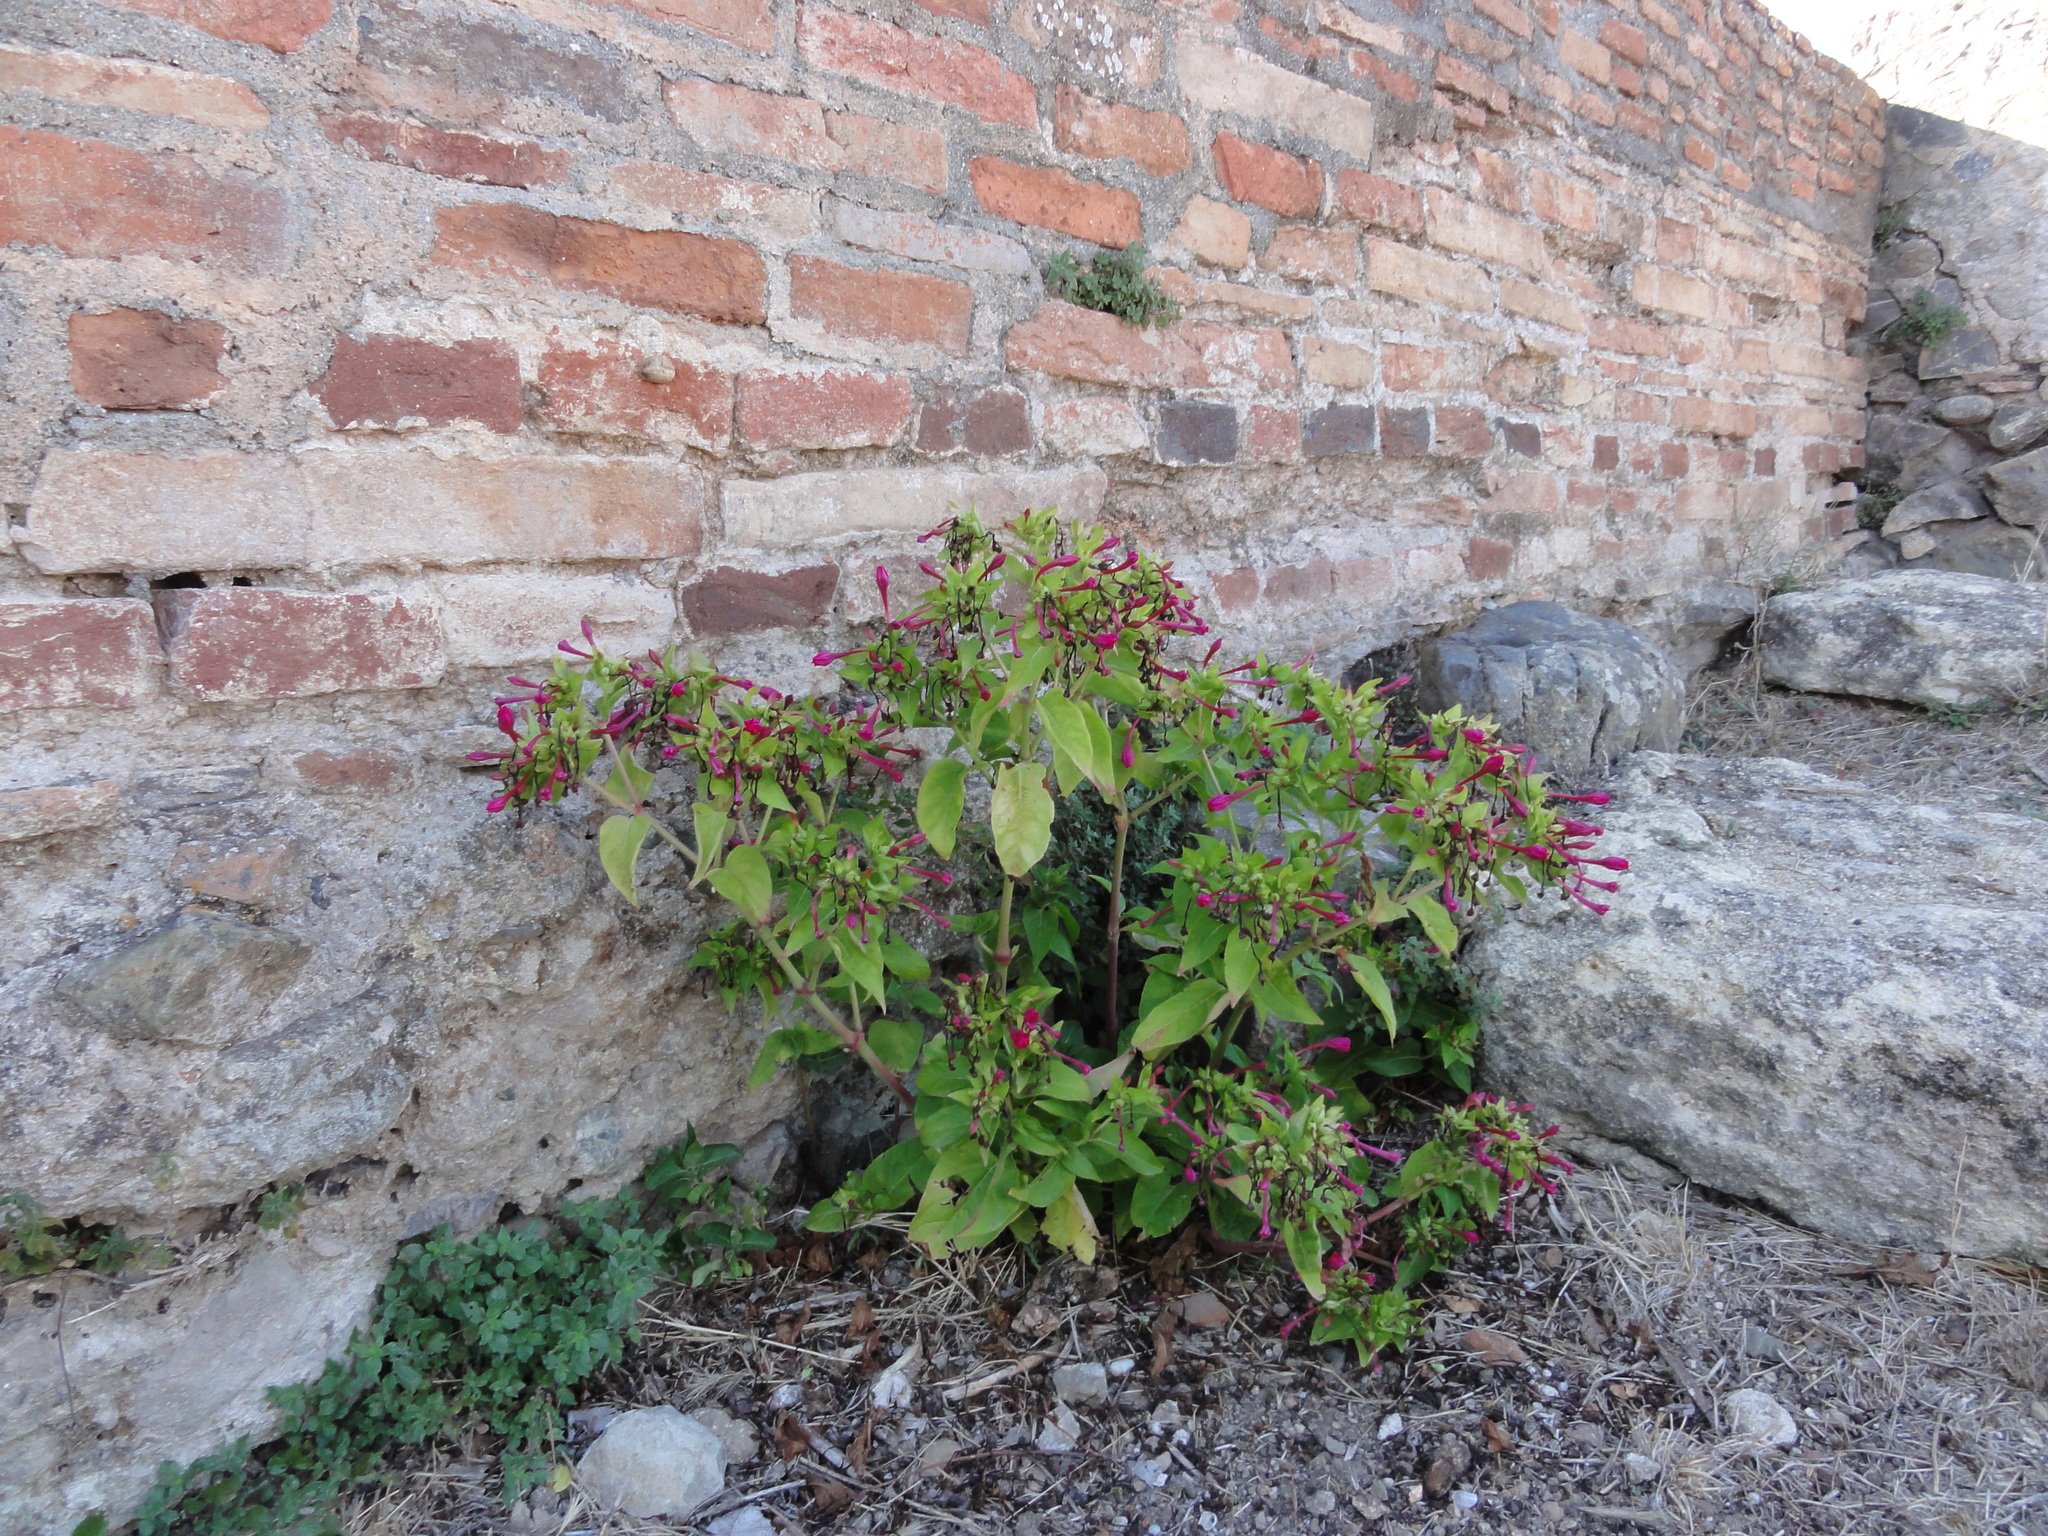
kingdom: Plantae
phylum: Tracheophyta
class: Magnoliopsida
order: Caryophyllales
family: Nyctaginaceae
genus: Mirabilis
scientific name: Mirabilis jalapa
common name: Marvel-of-peru
